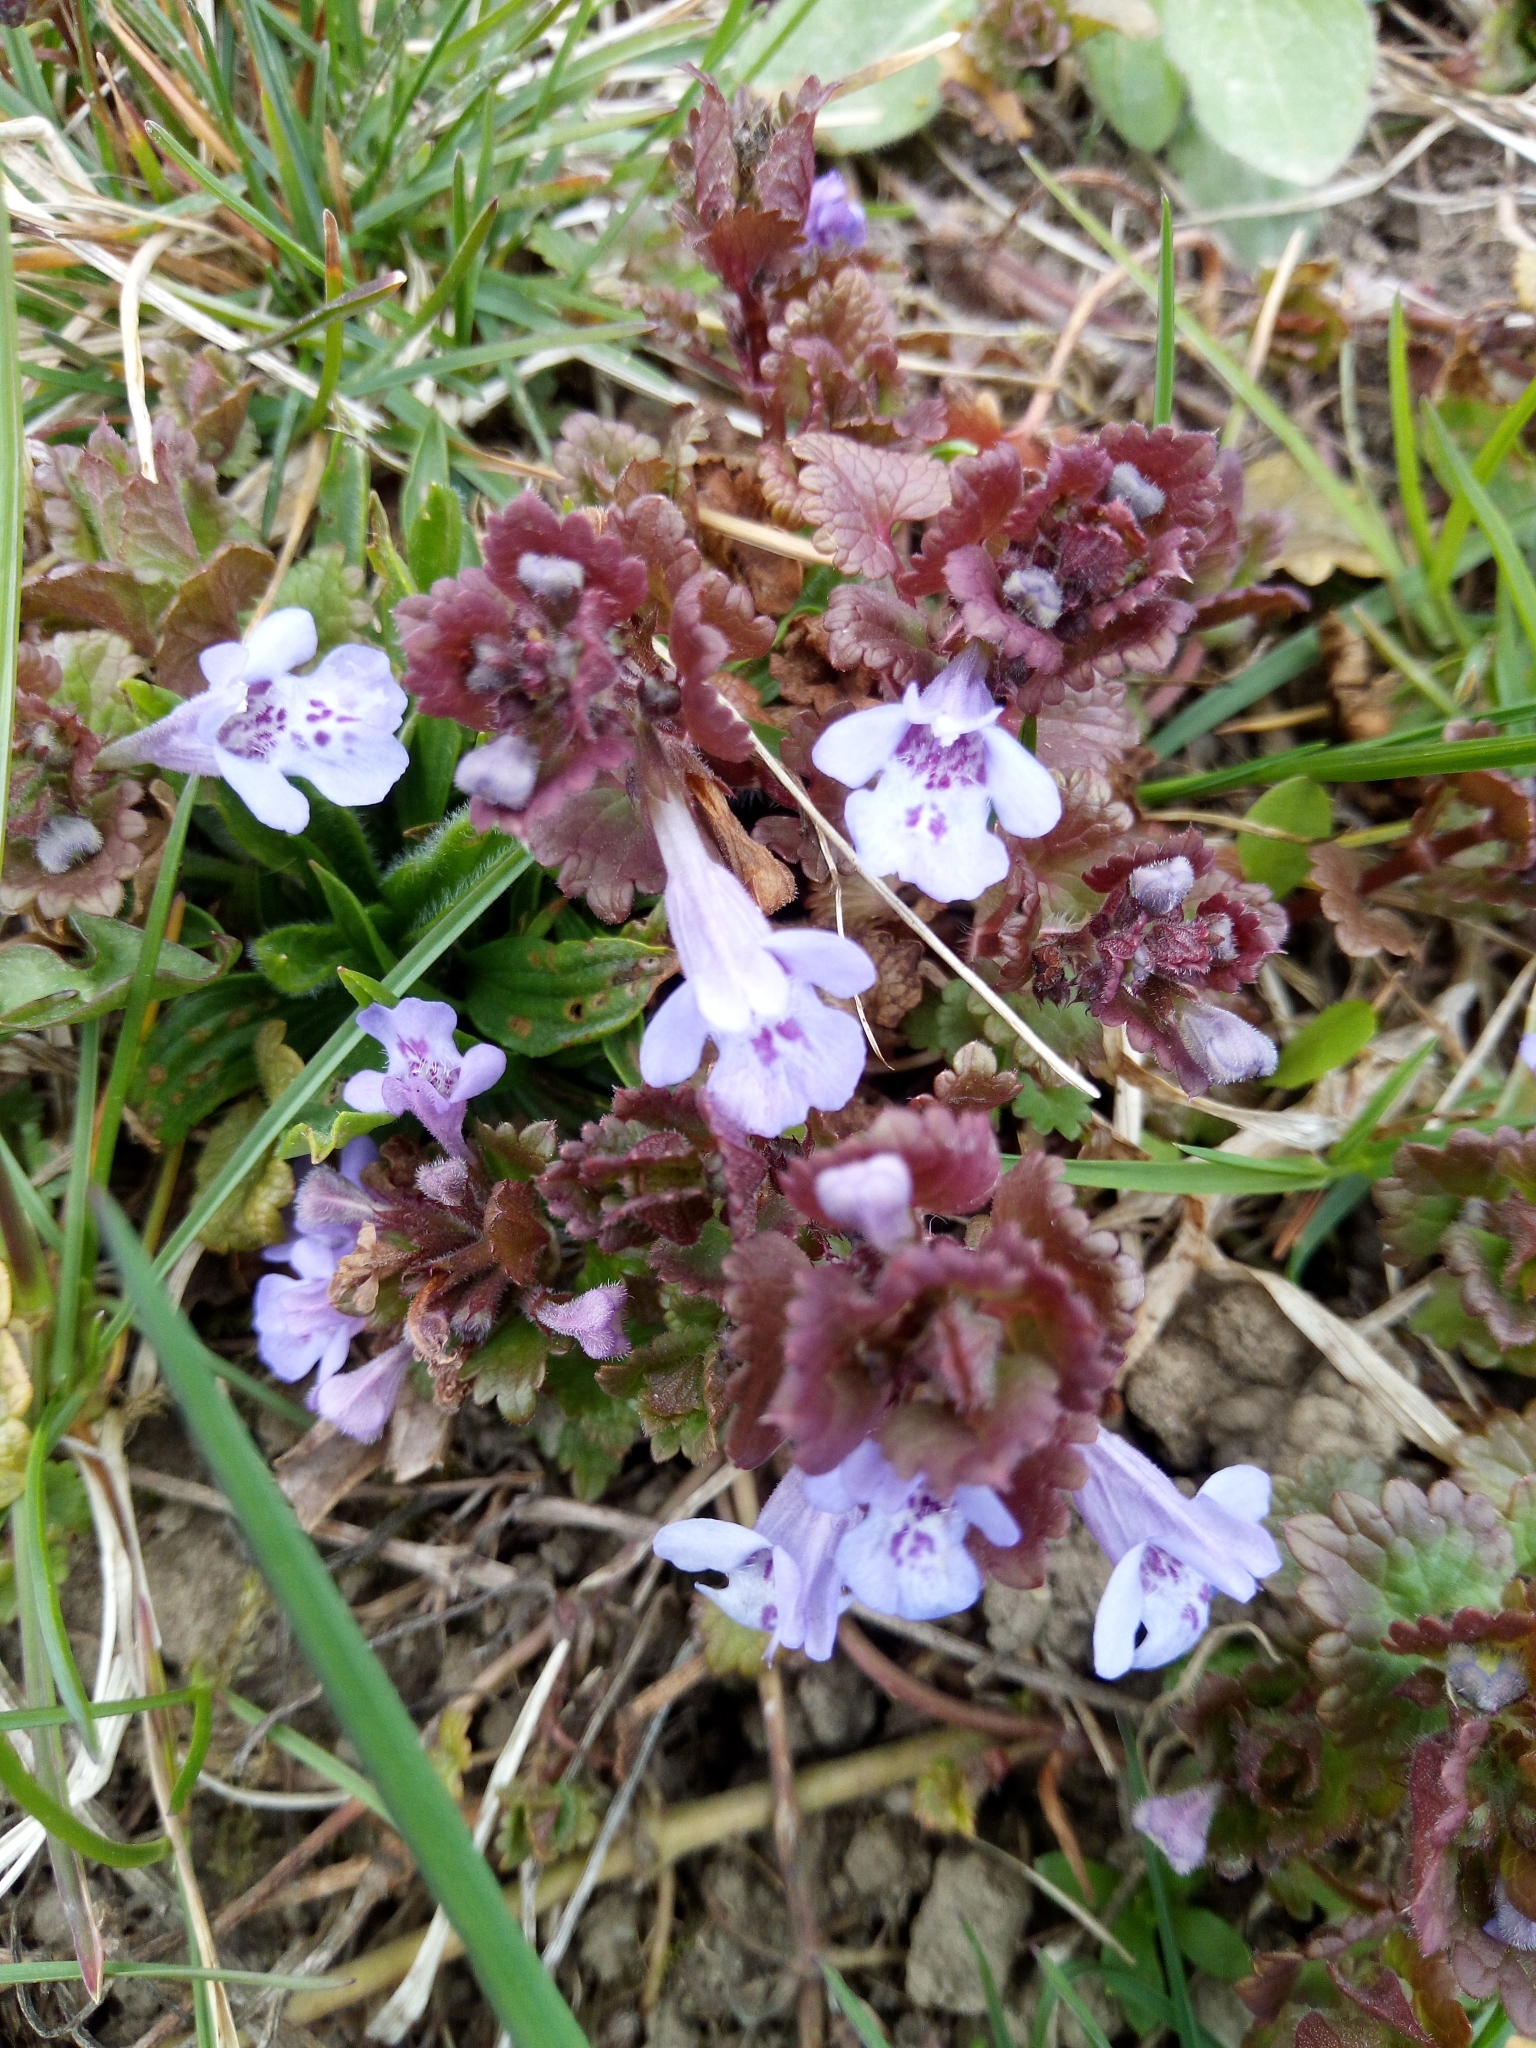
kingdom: Plantae
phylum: Tracheophyta
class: Magnoliopsida
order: Lamiales
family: Lamiaceae
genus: Glechoma
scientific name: Glechoma hederacea
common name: Ground ivy
